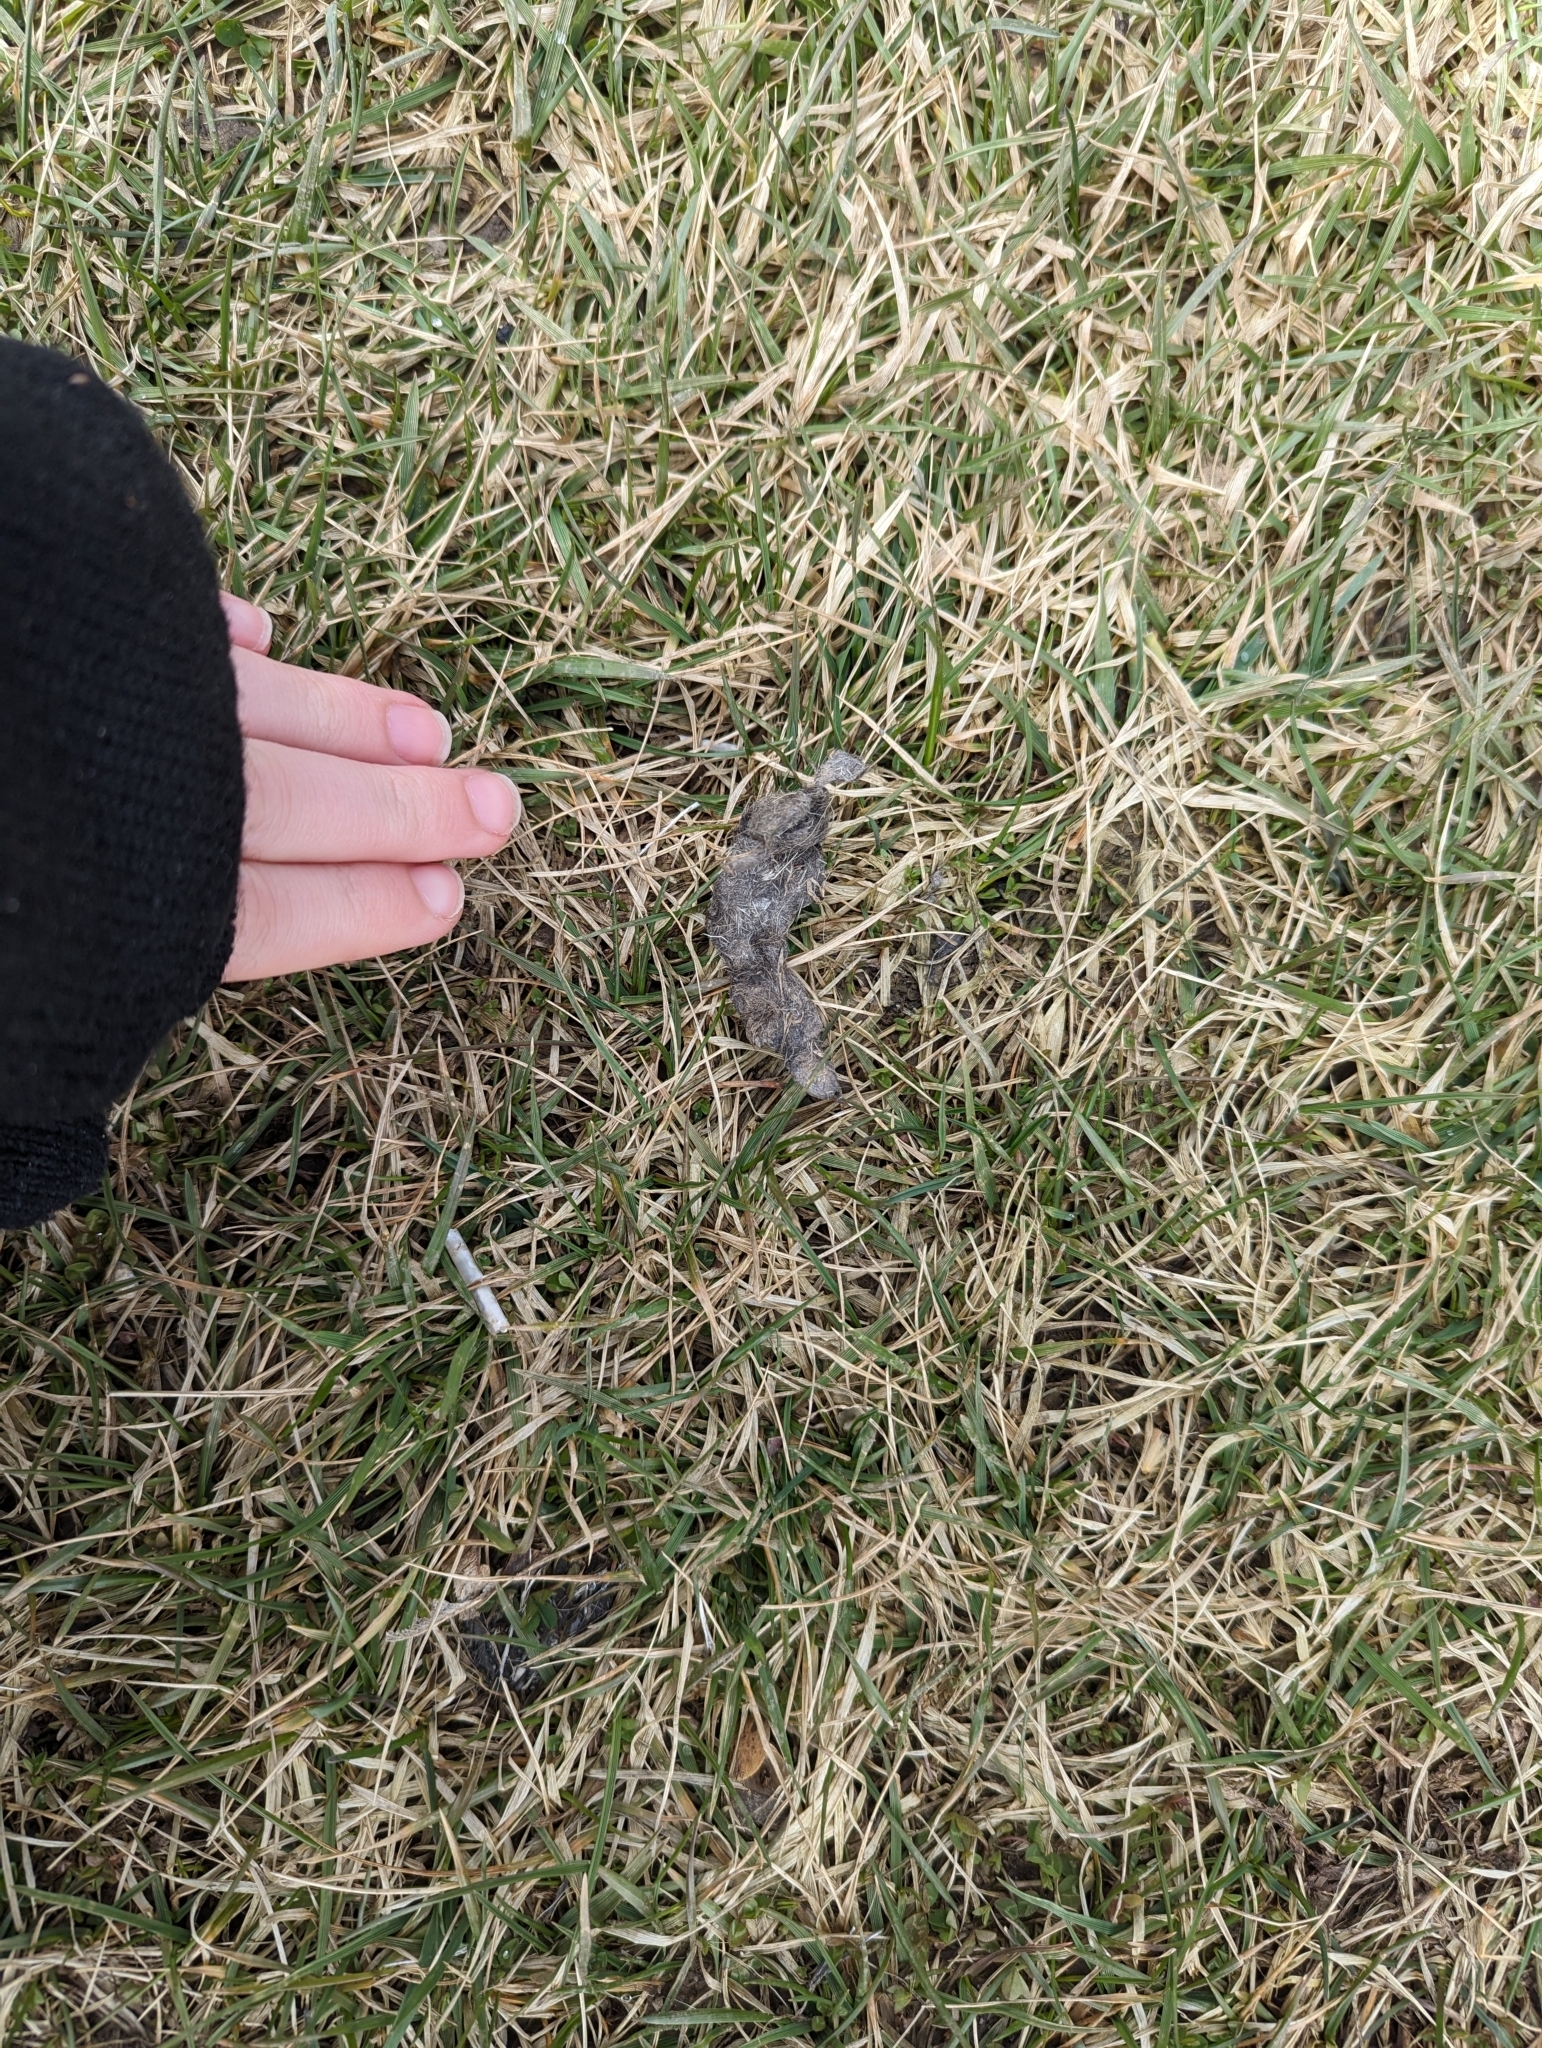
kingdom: Animalia
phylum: Chordata
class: Mammalia
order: Carnivora
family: Canidae
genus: Canis
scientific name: Canis latrans
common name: Coyote
